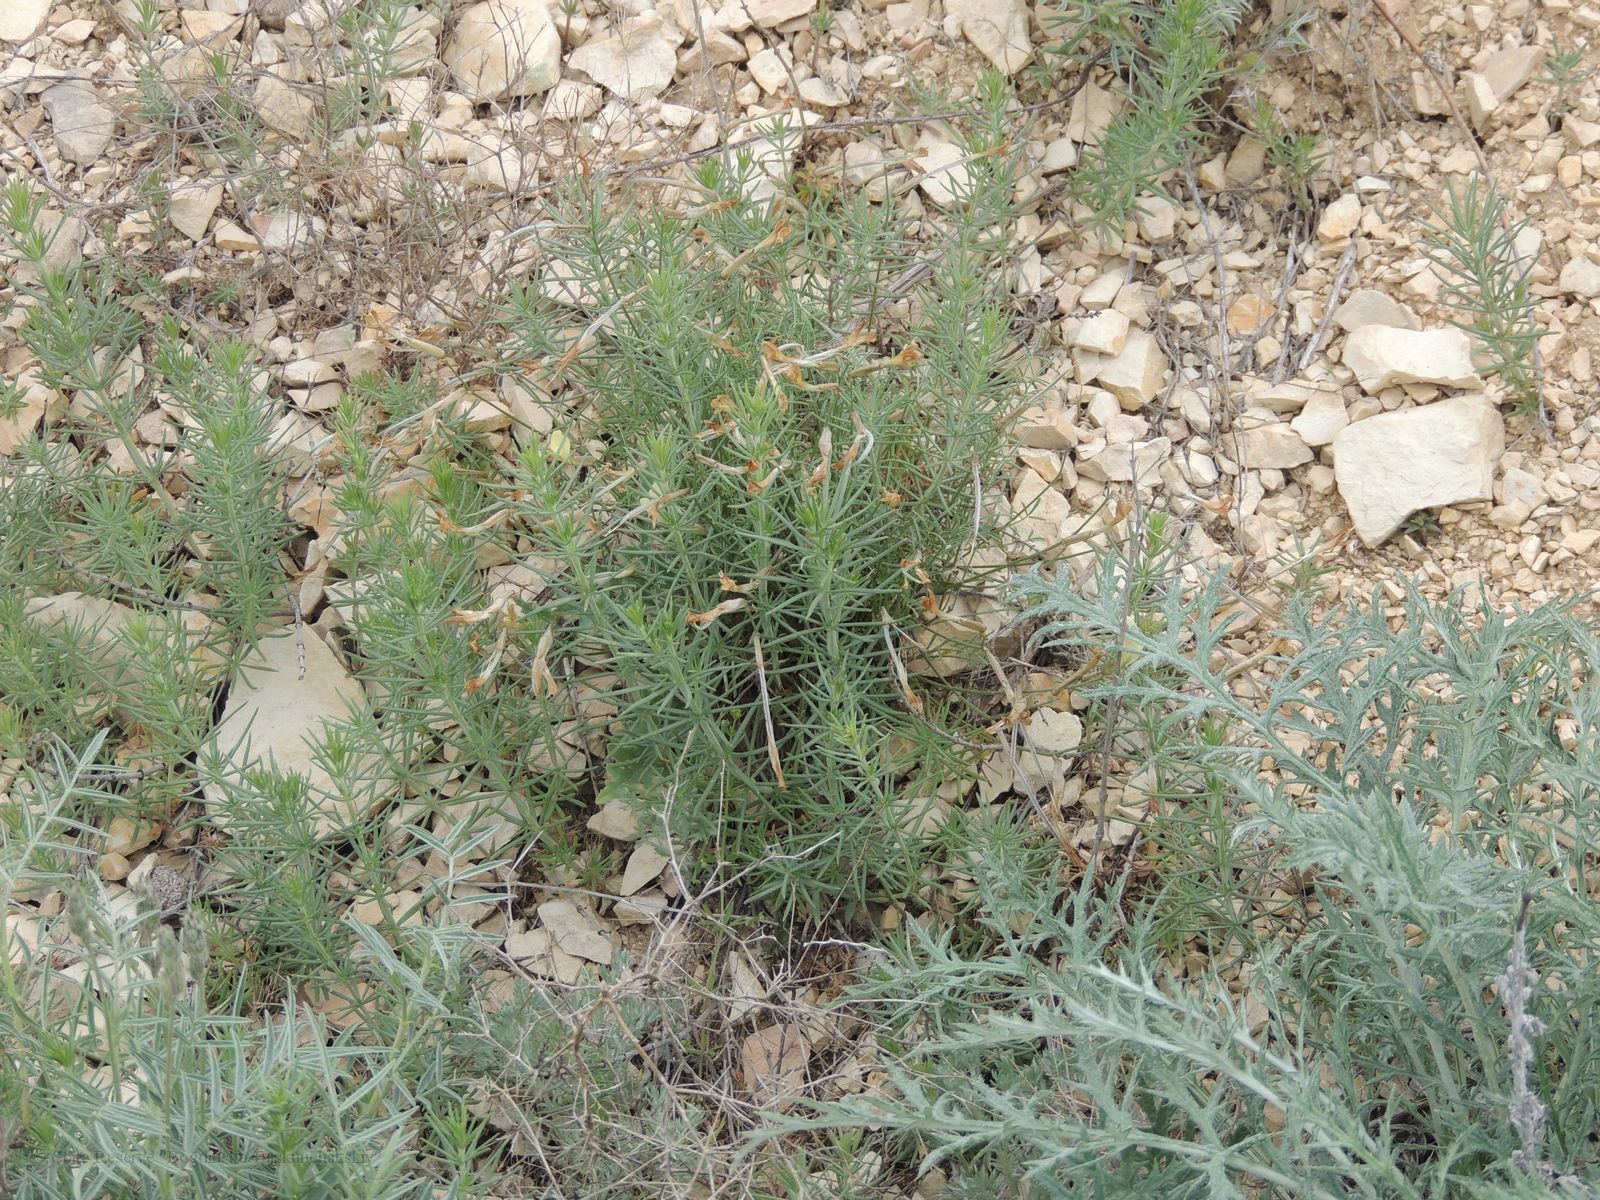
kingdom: Plantae
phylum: Tracheophyta
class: Magnoliopsida
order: Fabales
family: Fabaceae
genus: Astragalus
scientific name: Astragalus ucrainicus
